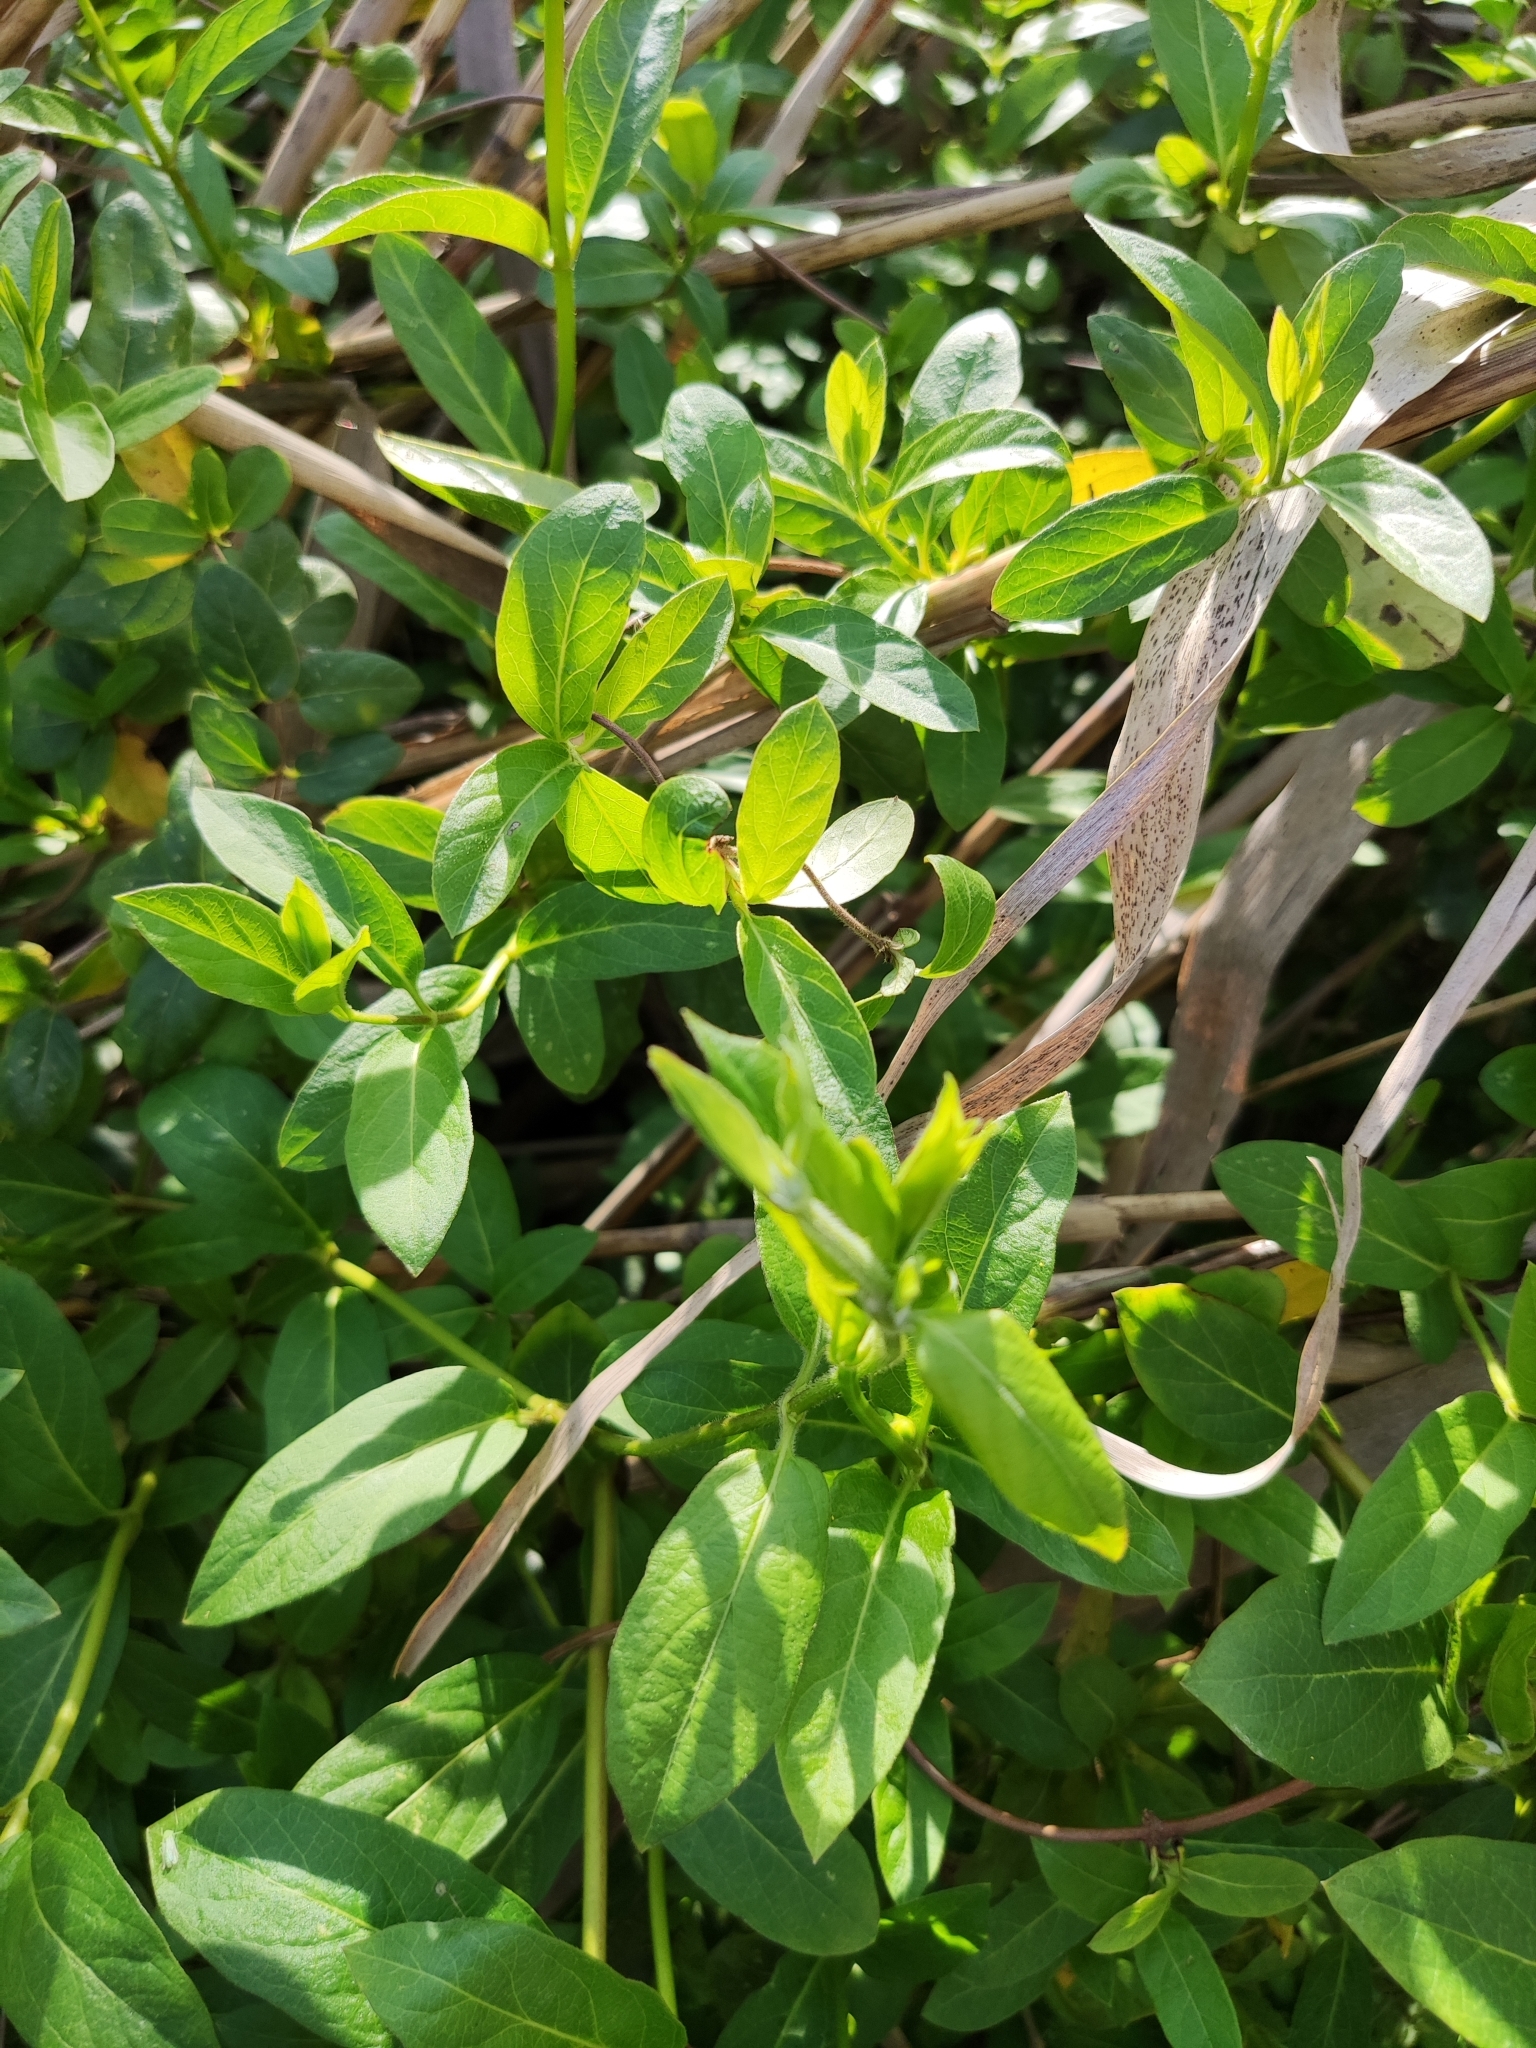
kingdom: Plantae
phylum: Tracheophyta
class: Magnoliopsida
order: Dipsacales
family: Caprifoliaceae
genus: Lonicera
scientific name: Lonicera japonica
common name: Japanese honeysuckle
